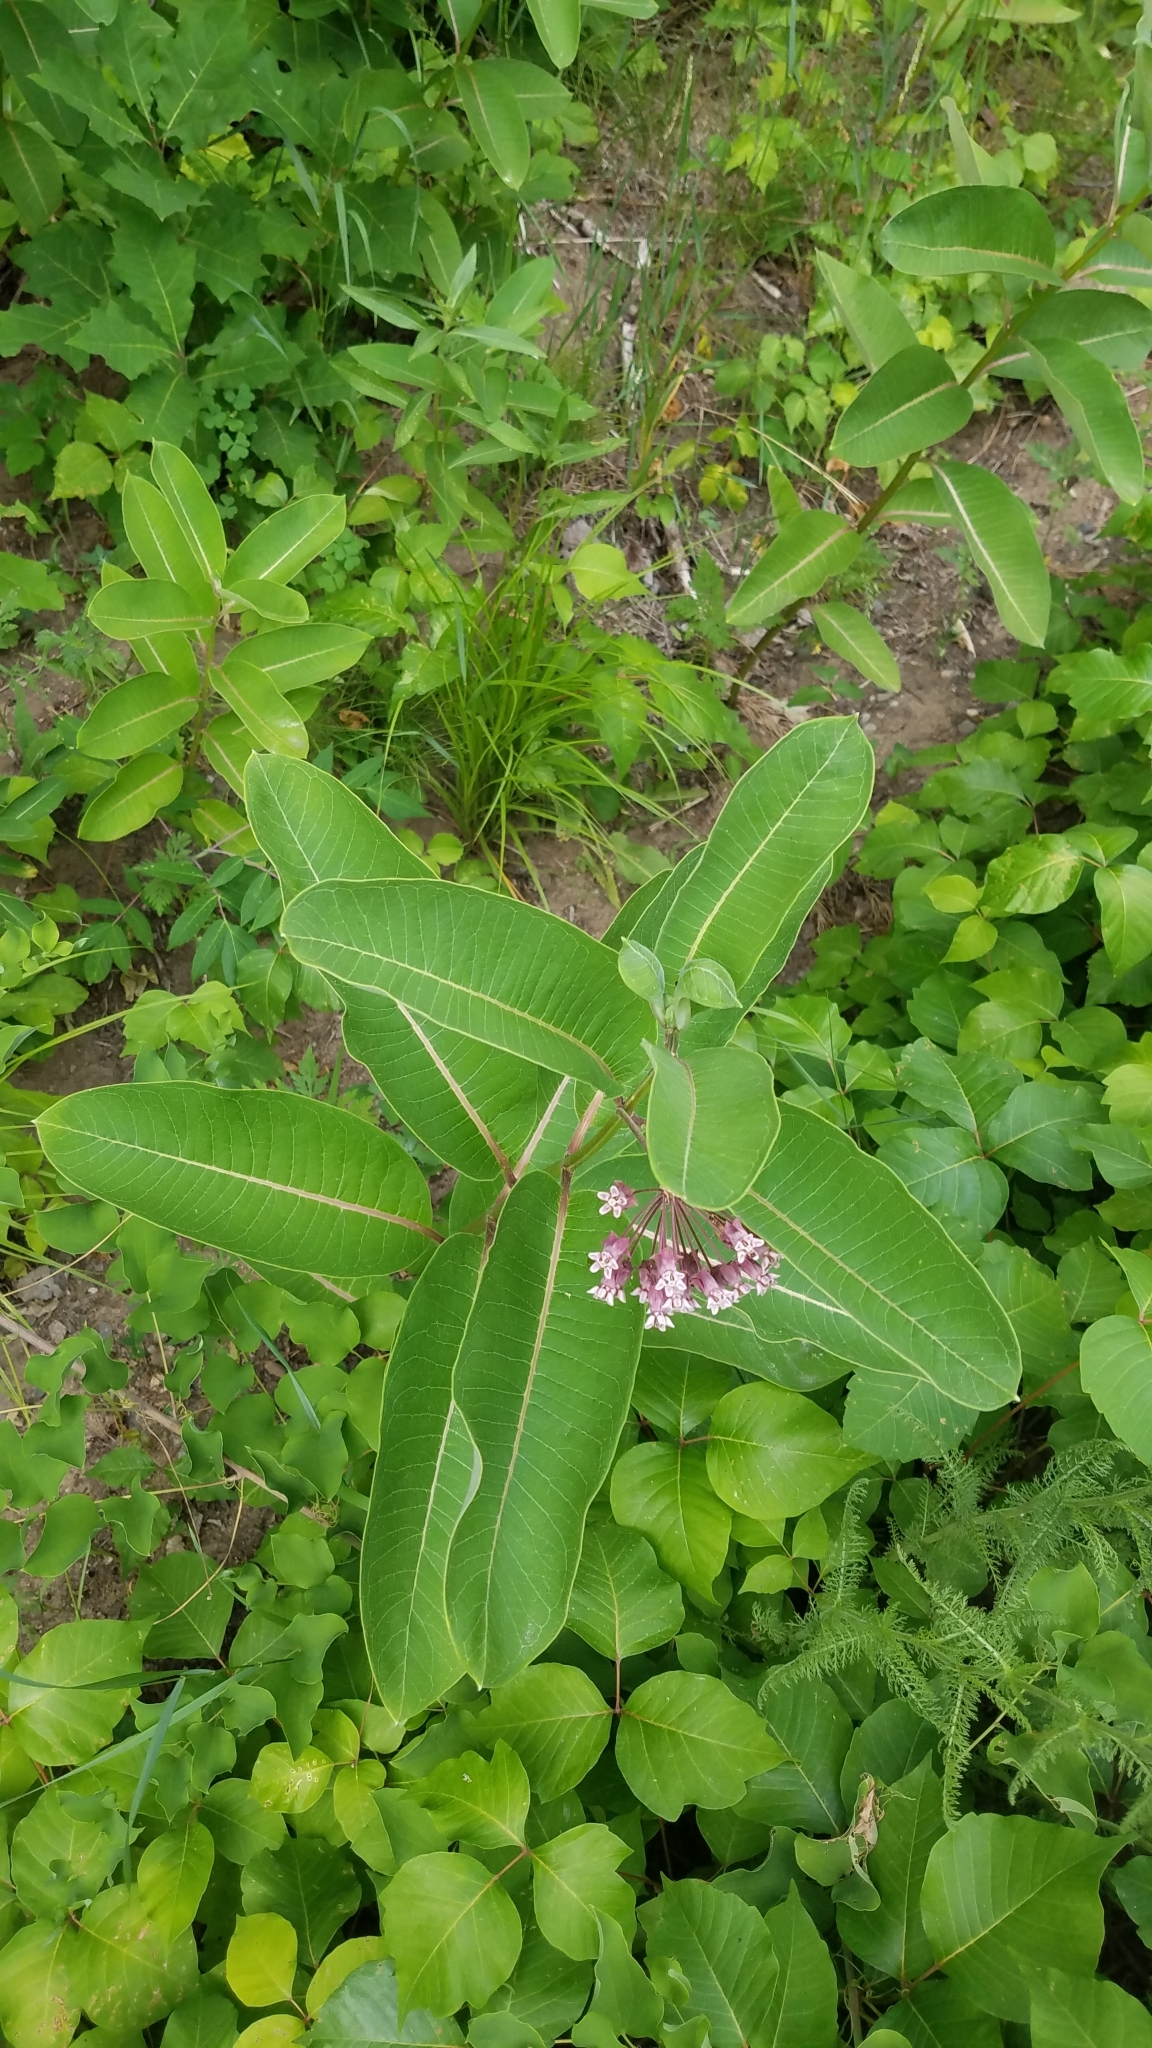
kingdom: Plantae
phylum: Tracheophyta
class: Magnoliopsida
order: Gentianales
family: Apocynaceae
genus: Asclepias
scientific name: Asclepias syriaca
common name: Common milkweed
